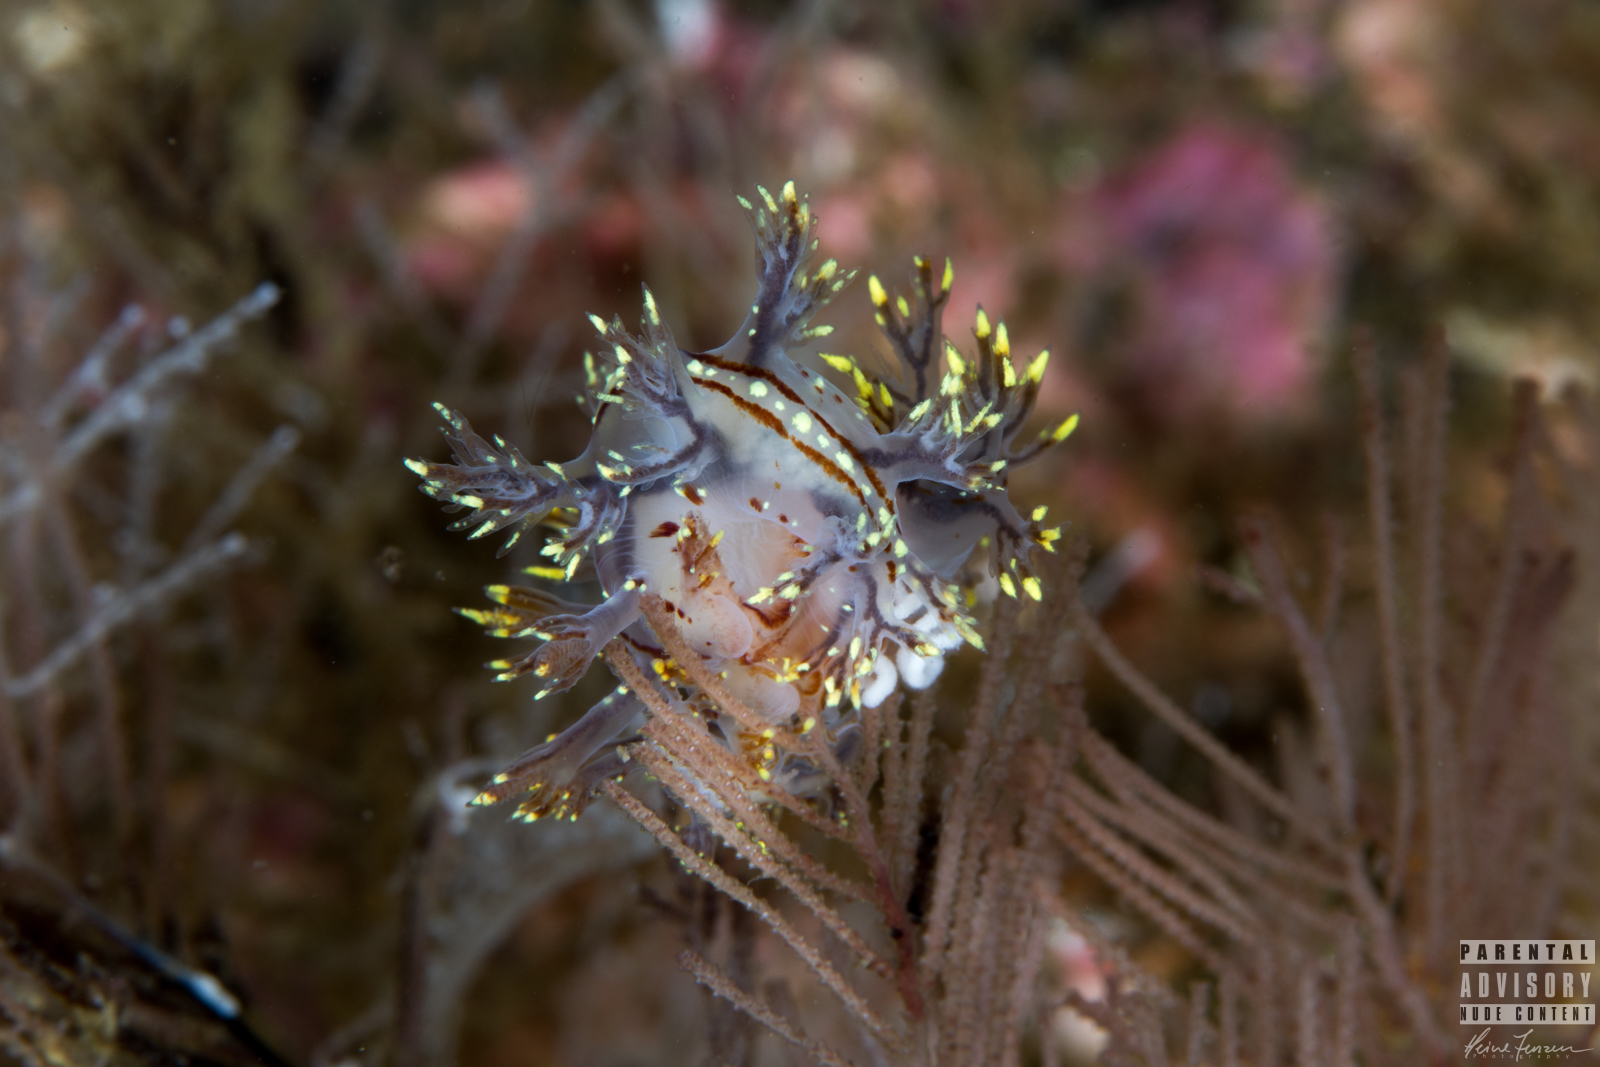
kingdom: Animalia
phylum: Mollusca
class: Gastropoda
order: Nudibranchia
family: Dendronotidae
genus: Dendronotus
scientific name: Dendronotus yrjargul
